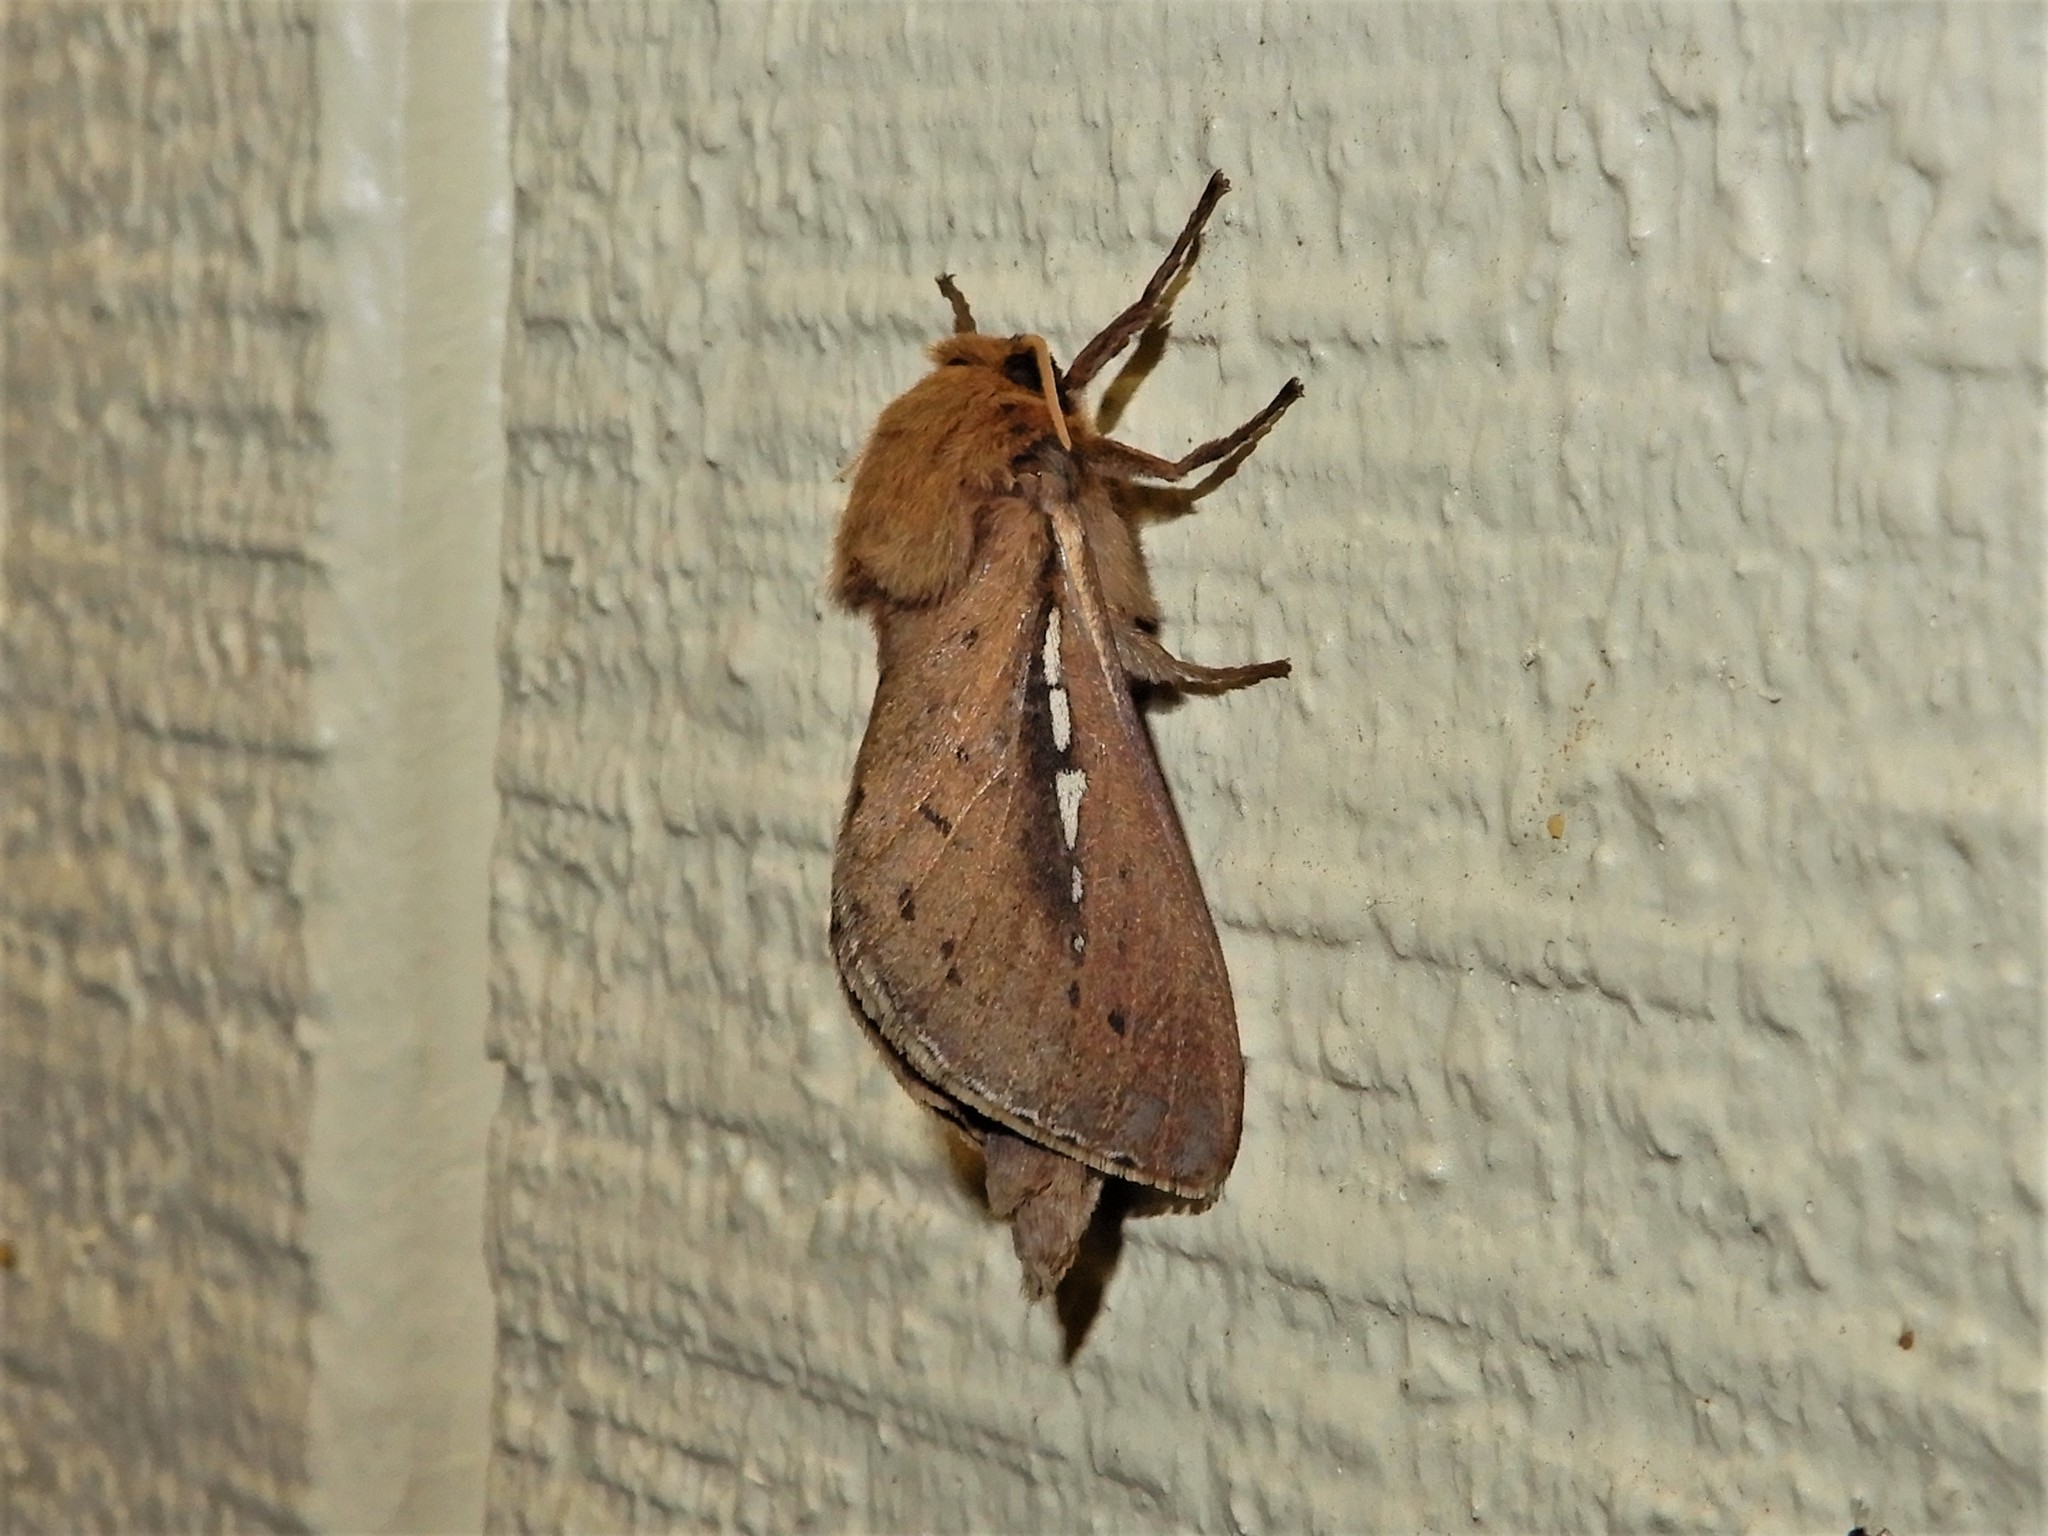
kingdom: Animalia
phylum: Arthropoda
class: Insecta
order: Lepidoptera
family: Hepialidae
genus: Wiseana
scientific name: Wiseana umbraculatus
